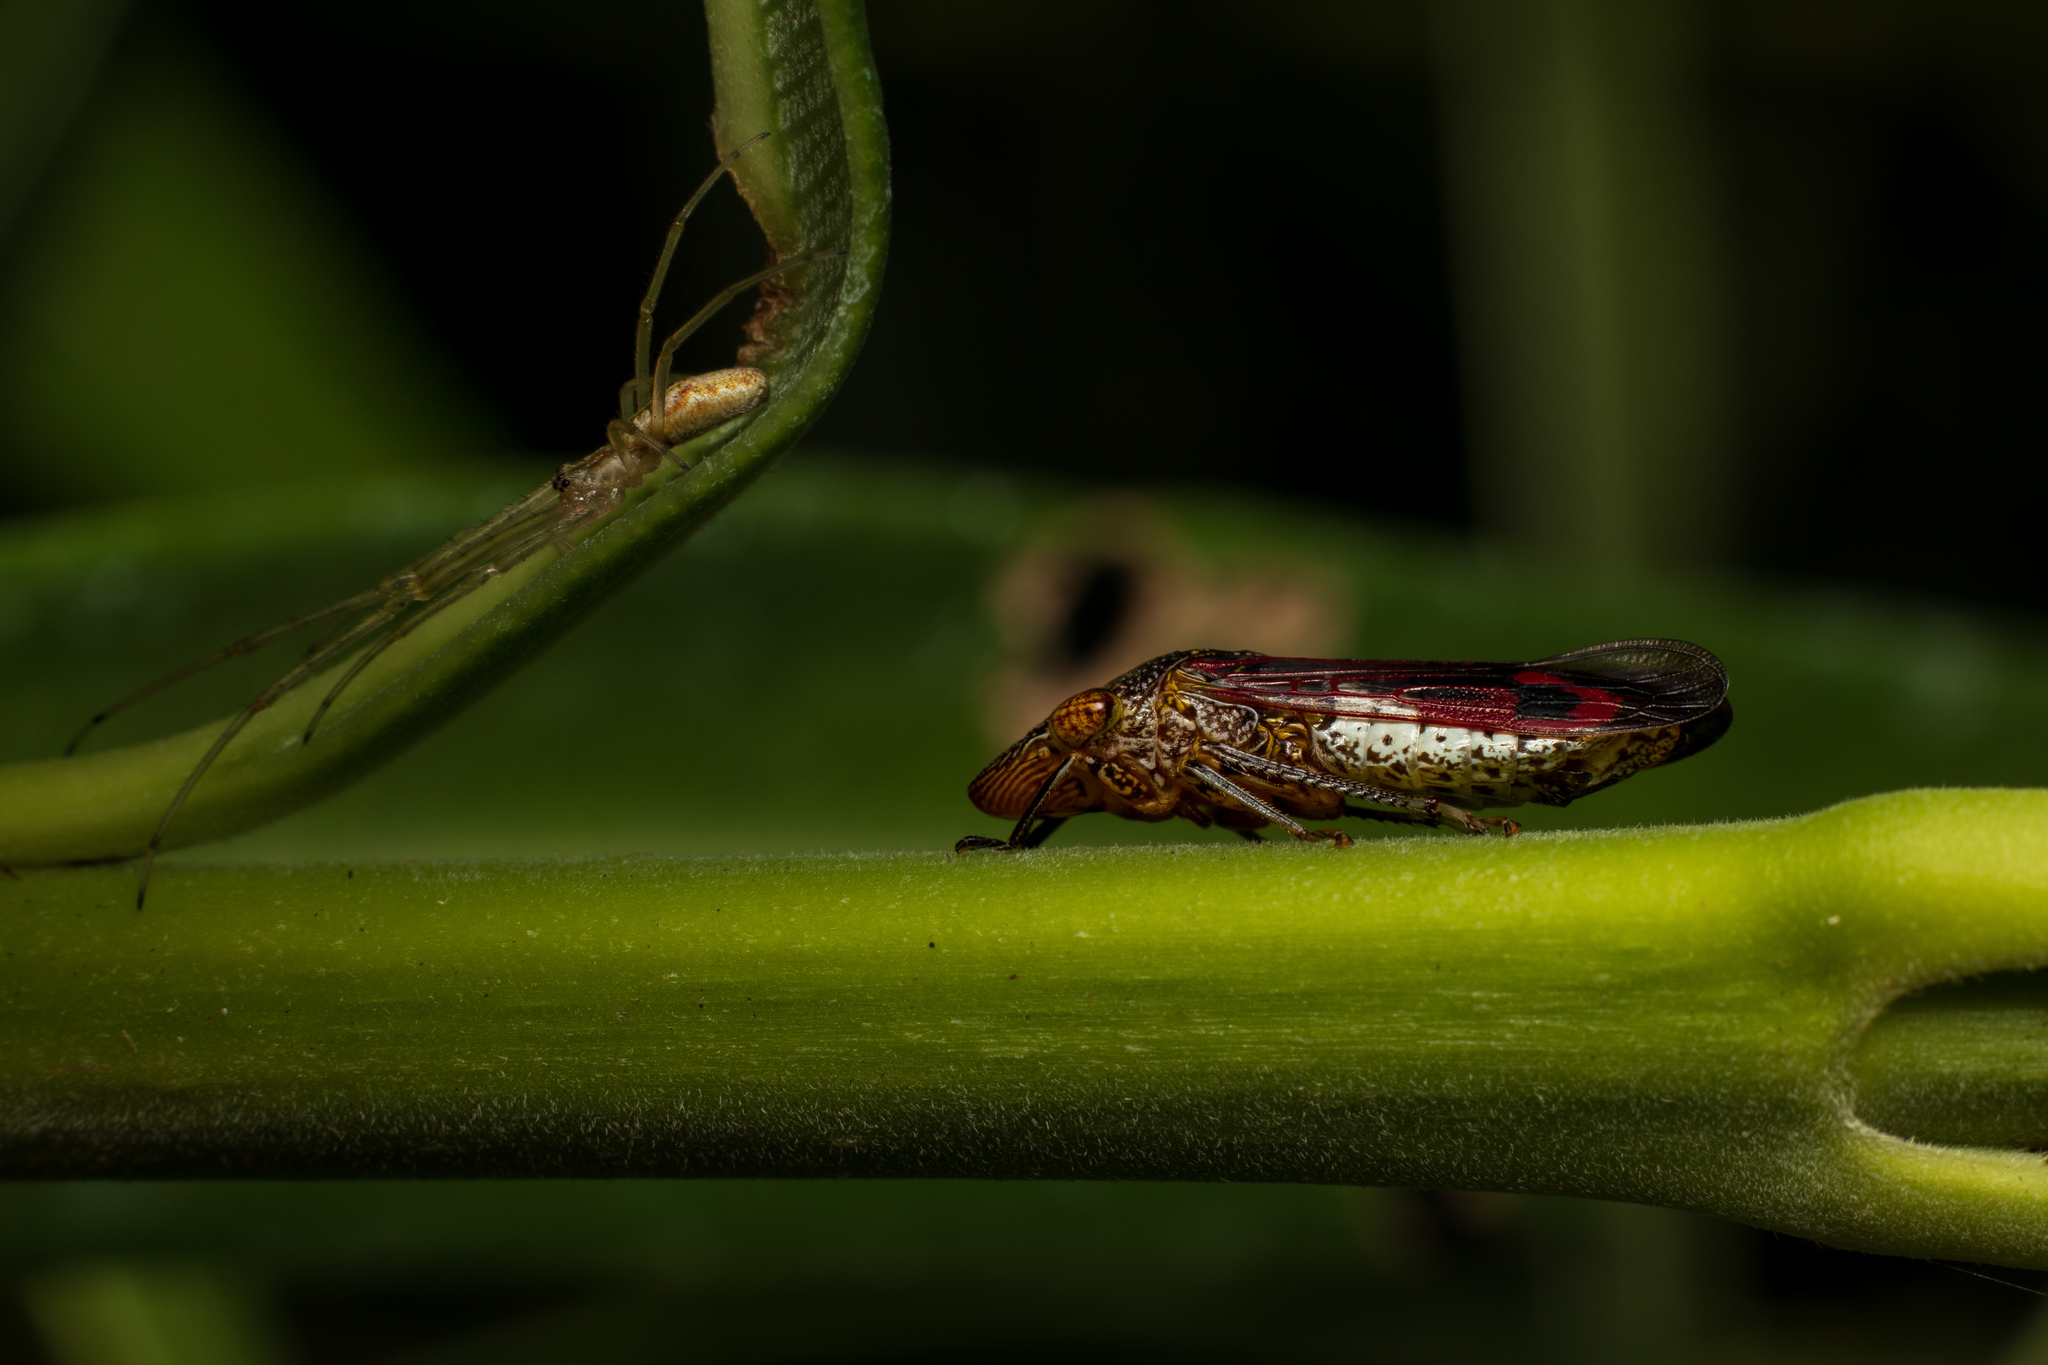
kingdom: Animalia
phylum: Arthropoda
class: Insecta
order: Hemiptera
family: Cicadellidae
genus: Homalodisca
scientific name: Homalodisca vitripennis
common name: Glassy-winged sharpshooter
